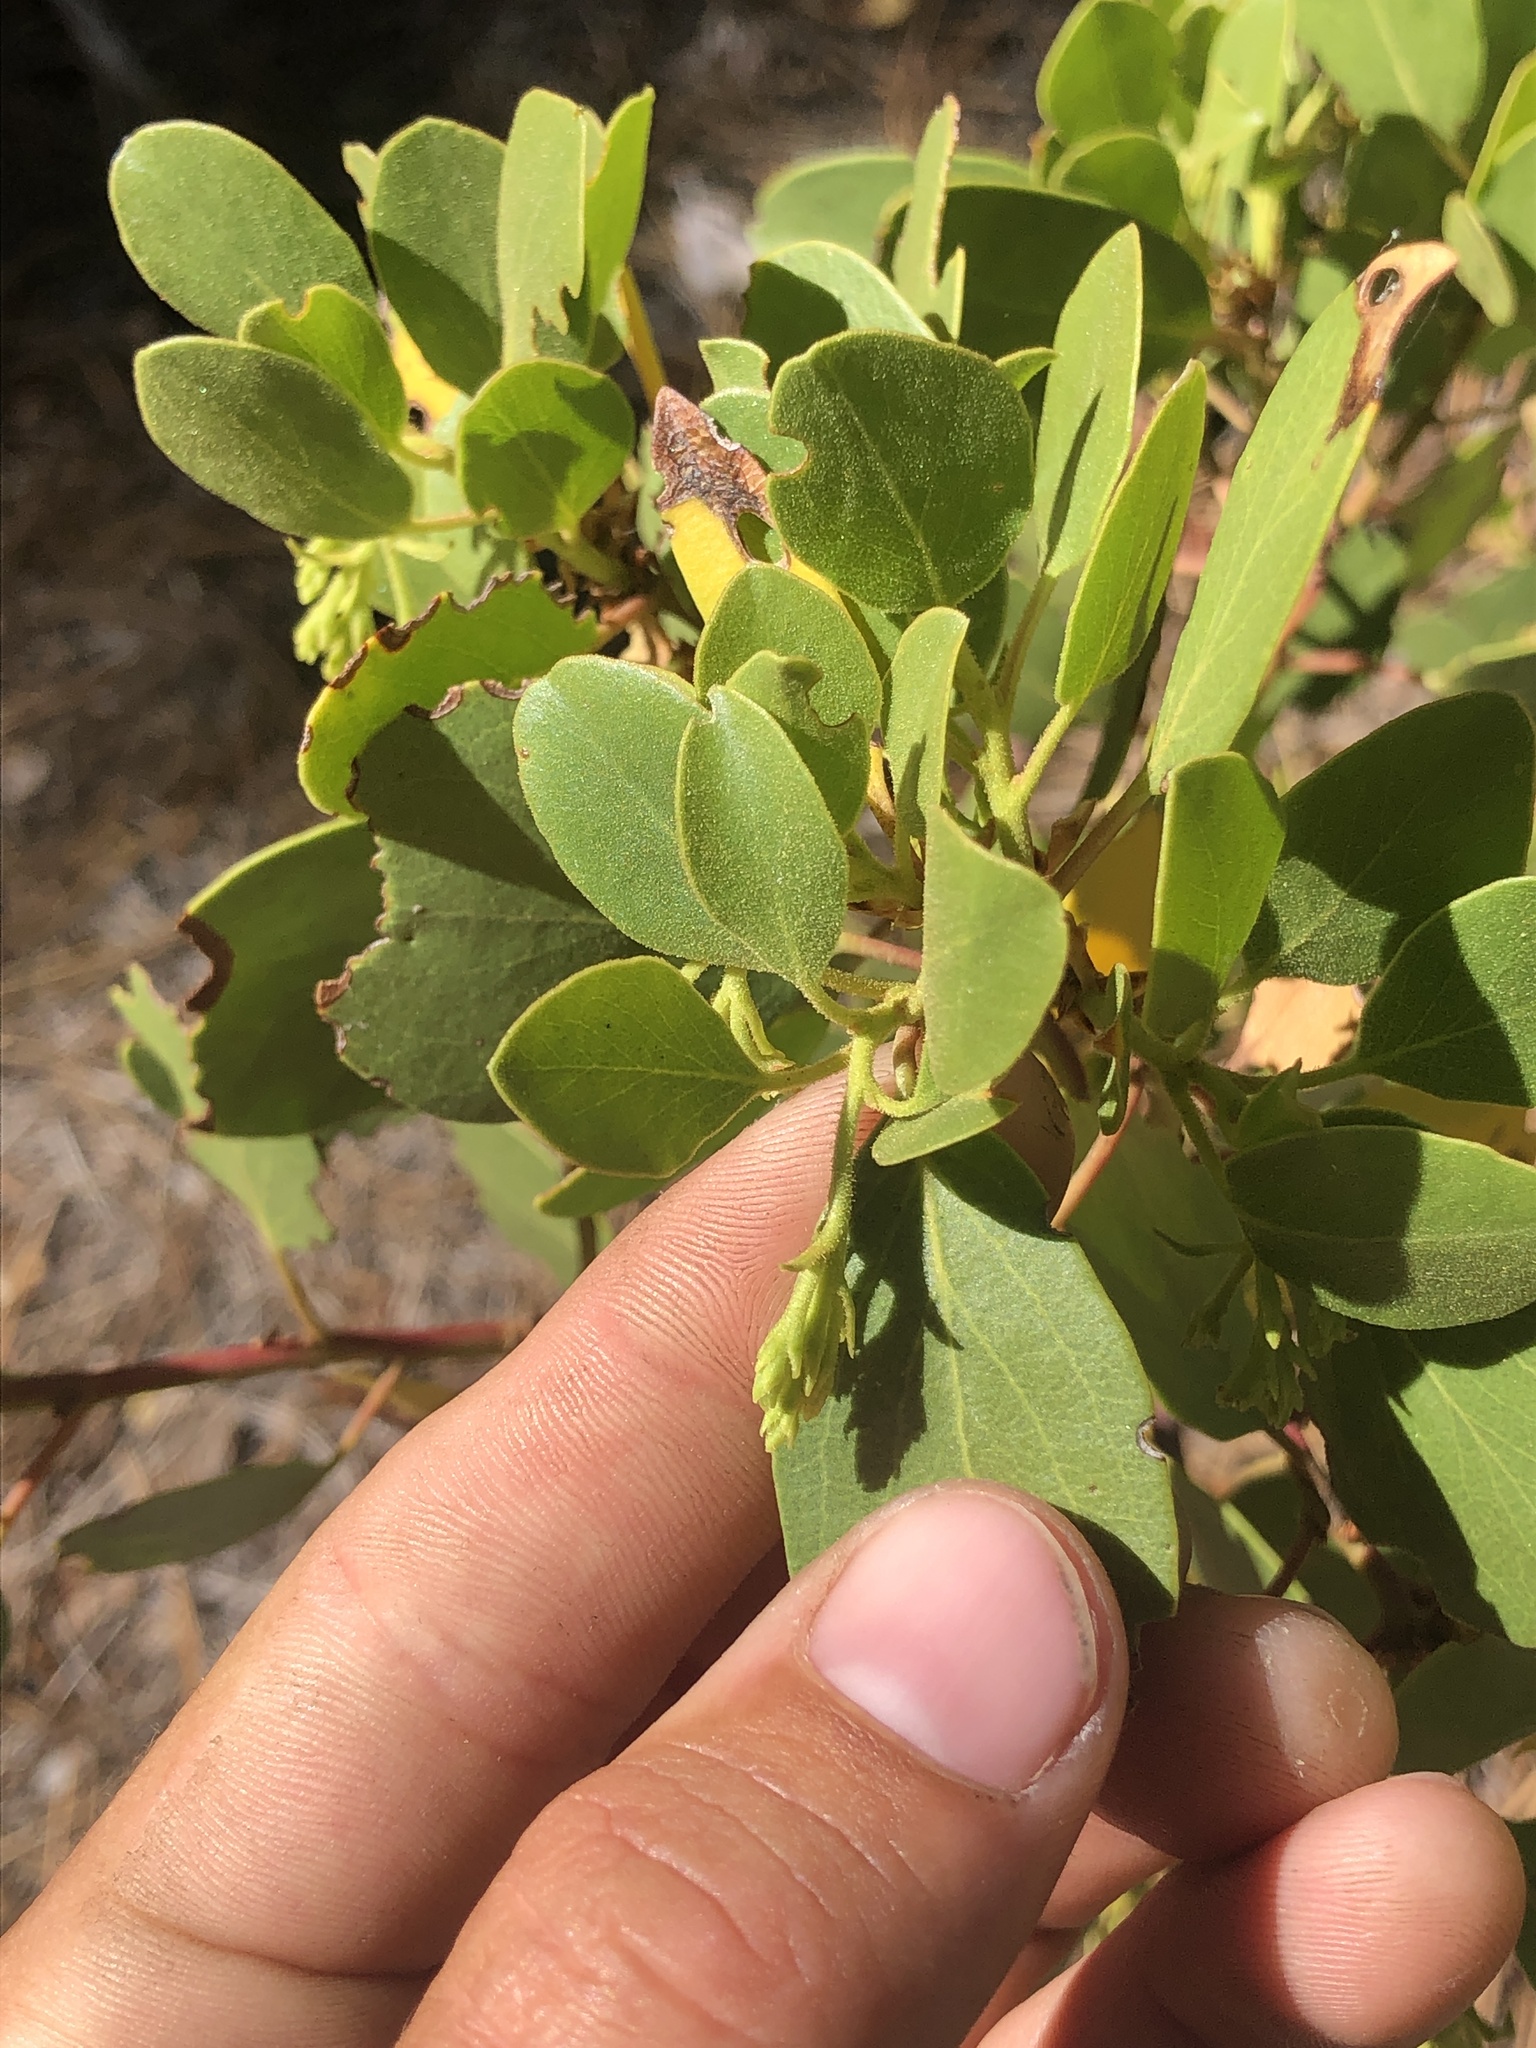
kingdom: Plantae
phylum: Tracheophyta
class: Magnoliopsida
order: Ericales
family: Ericaceae
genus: Arctostaphylos
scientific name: Arctostaphylos patula
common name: Green-leaf manzanita
